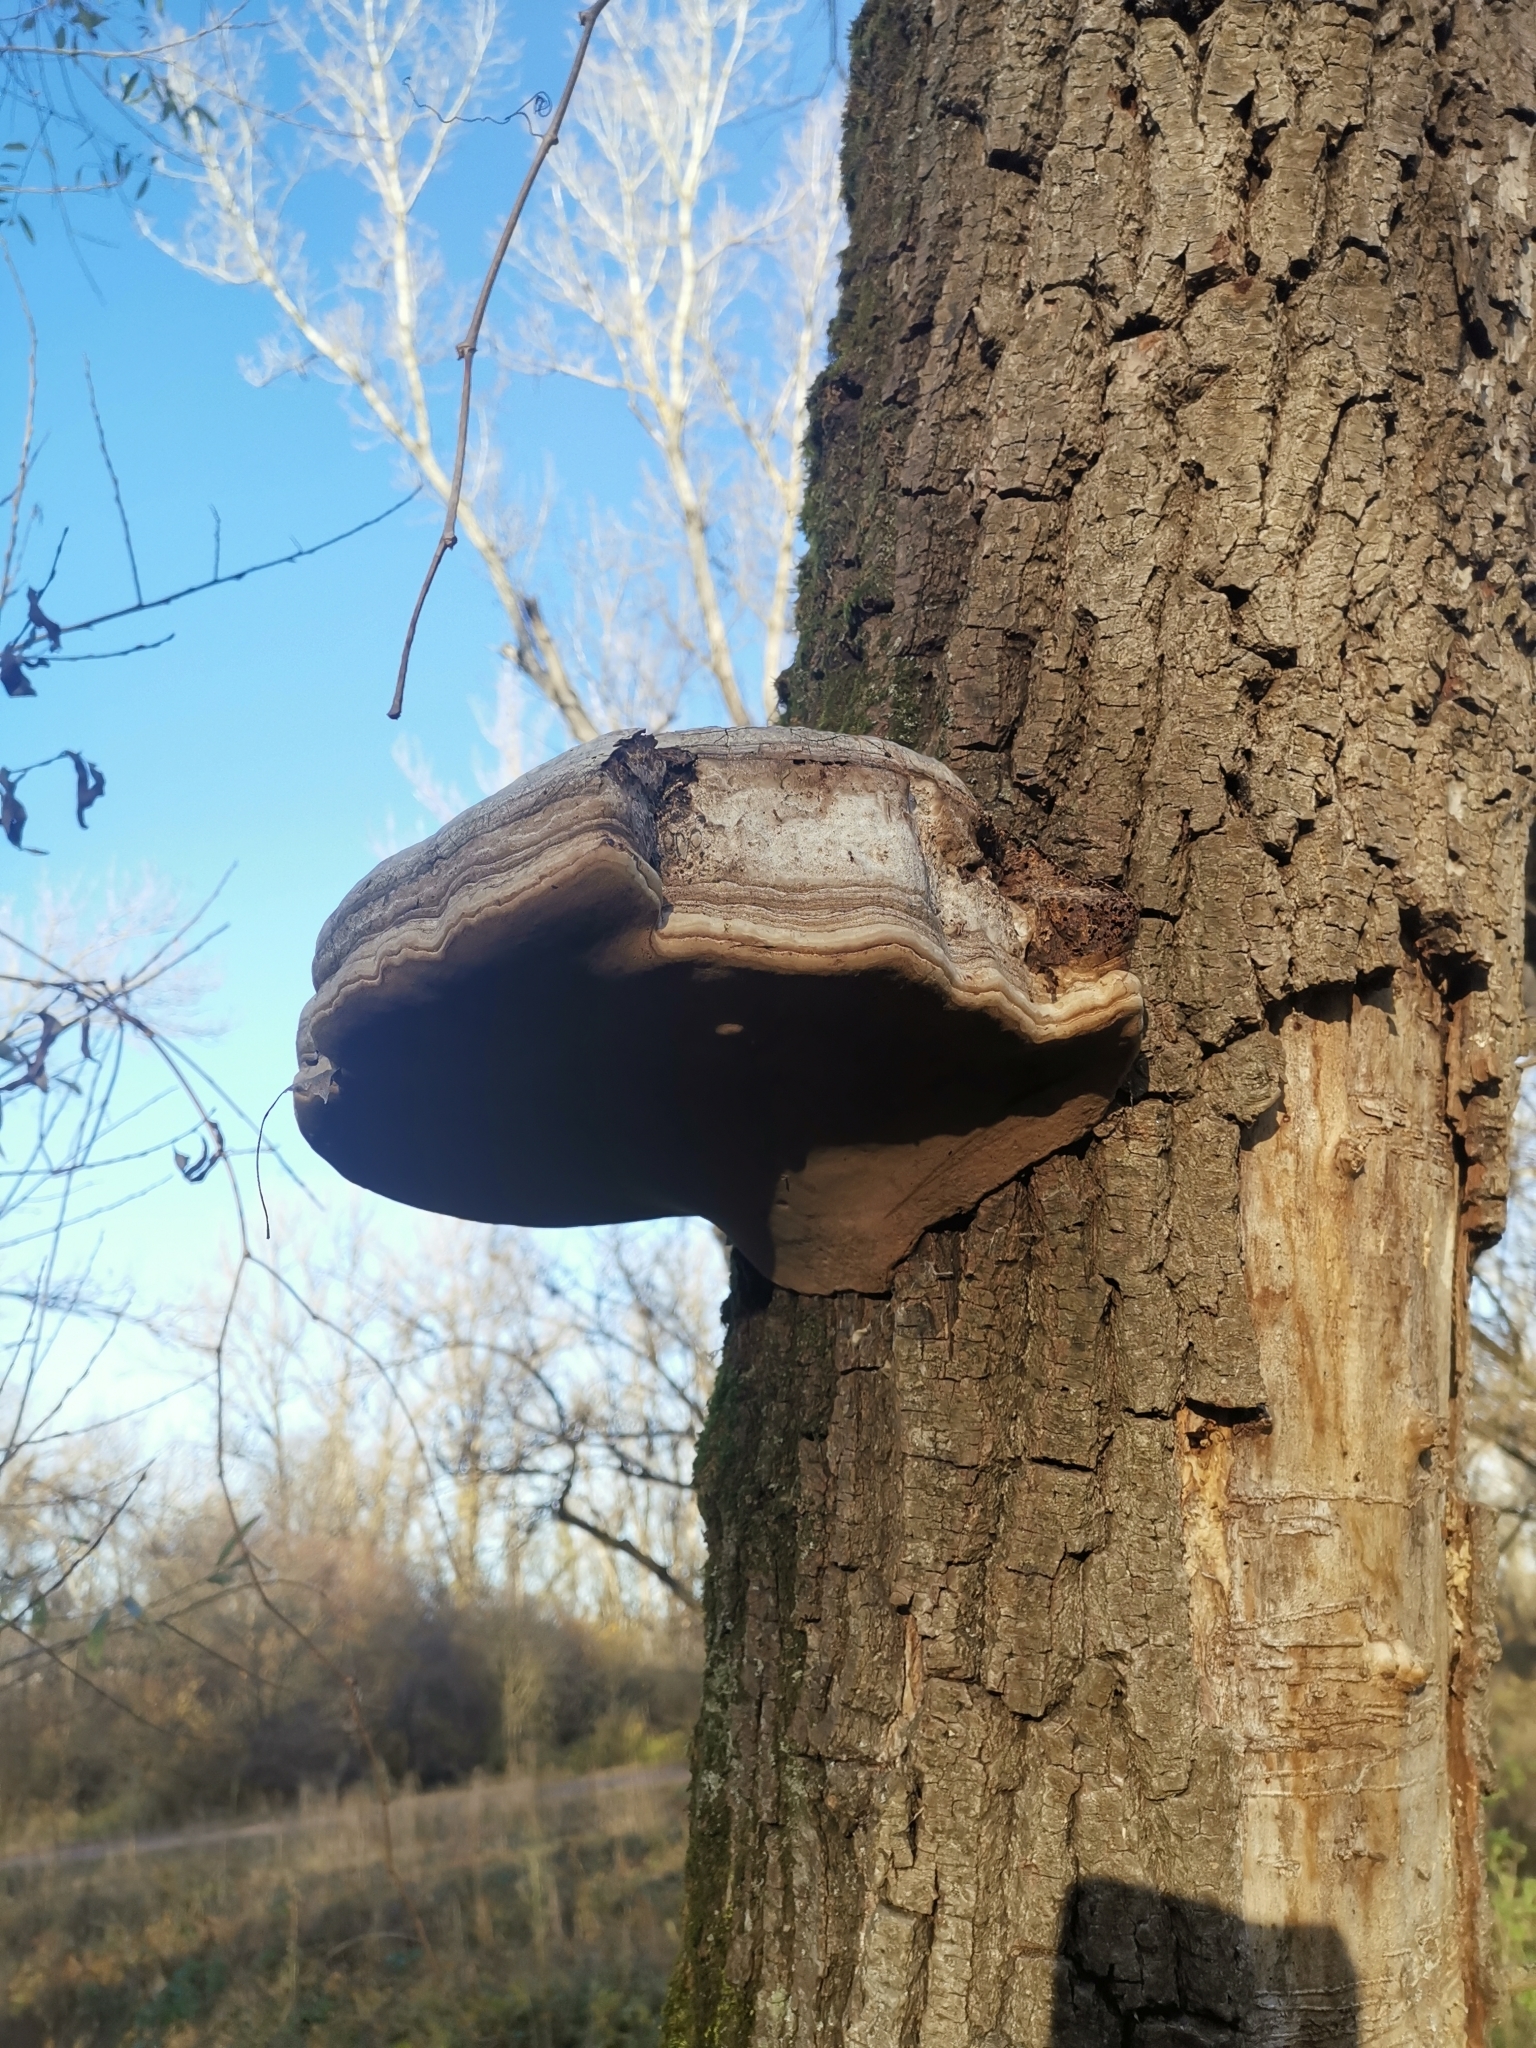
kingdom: Fungi
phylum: Basidiomycota
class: Agaricomycetes
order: Polyporales
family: Polyporaceae
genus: Fomes
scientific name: Fomes fomentarius
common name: Hoof fungus
